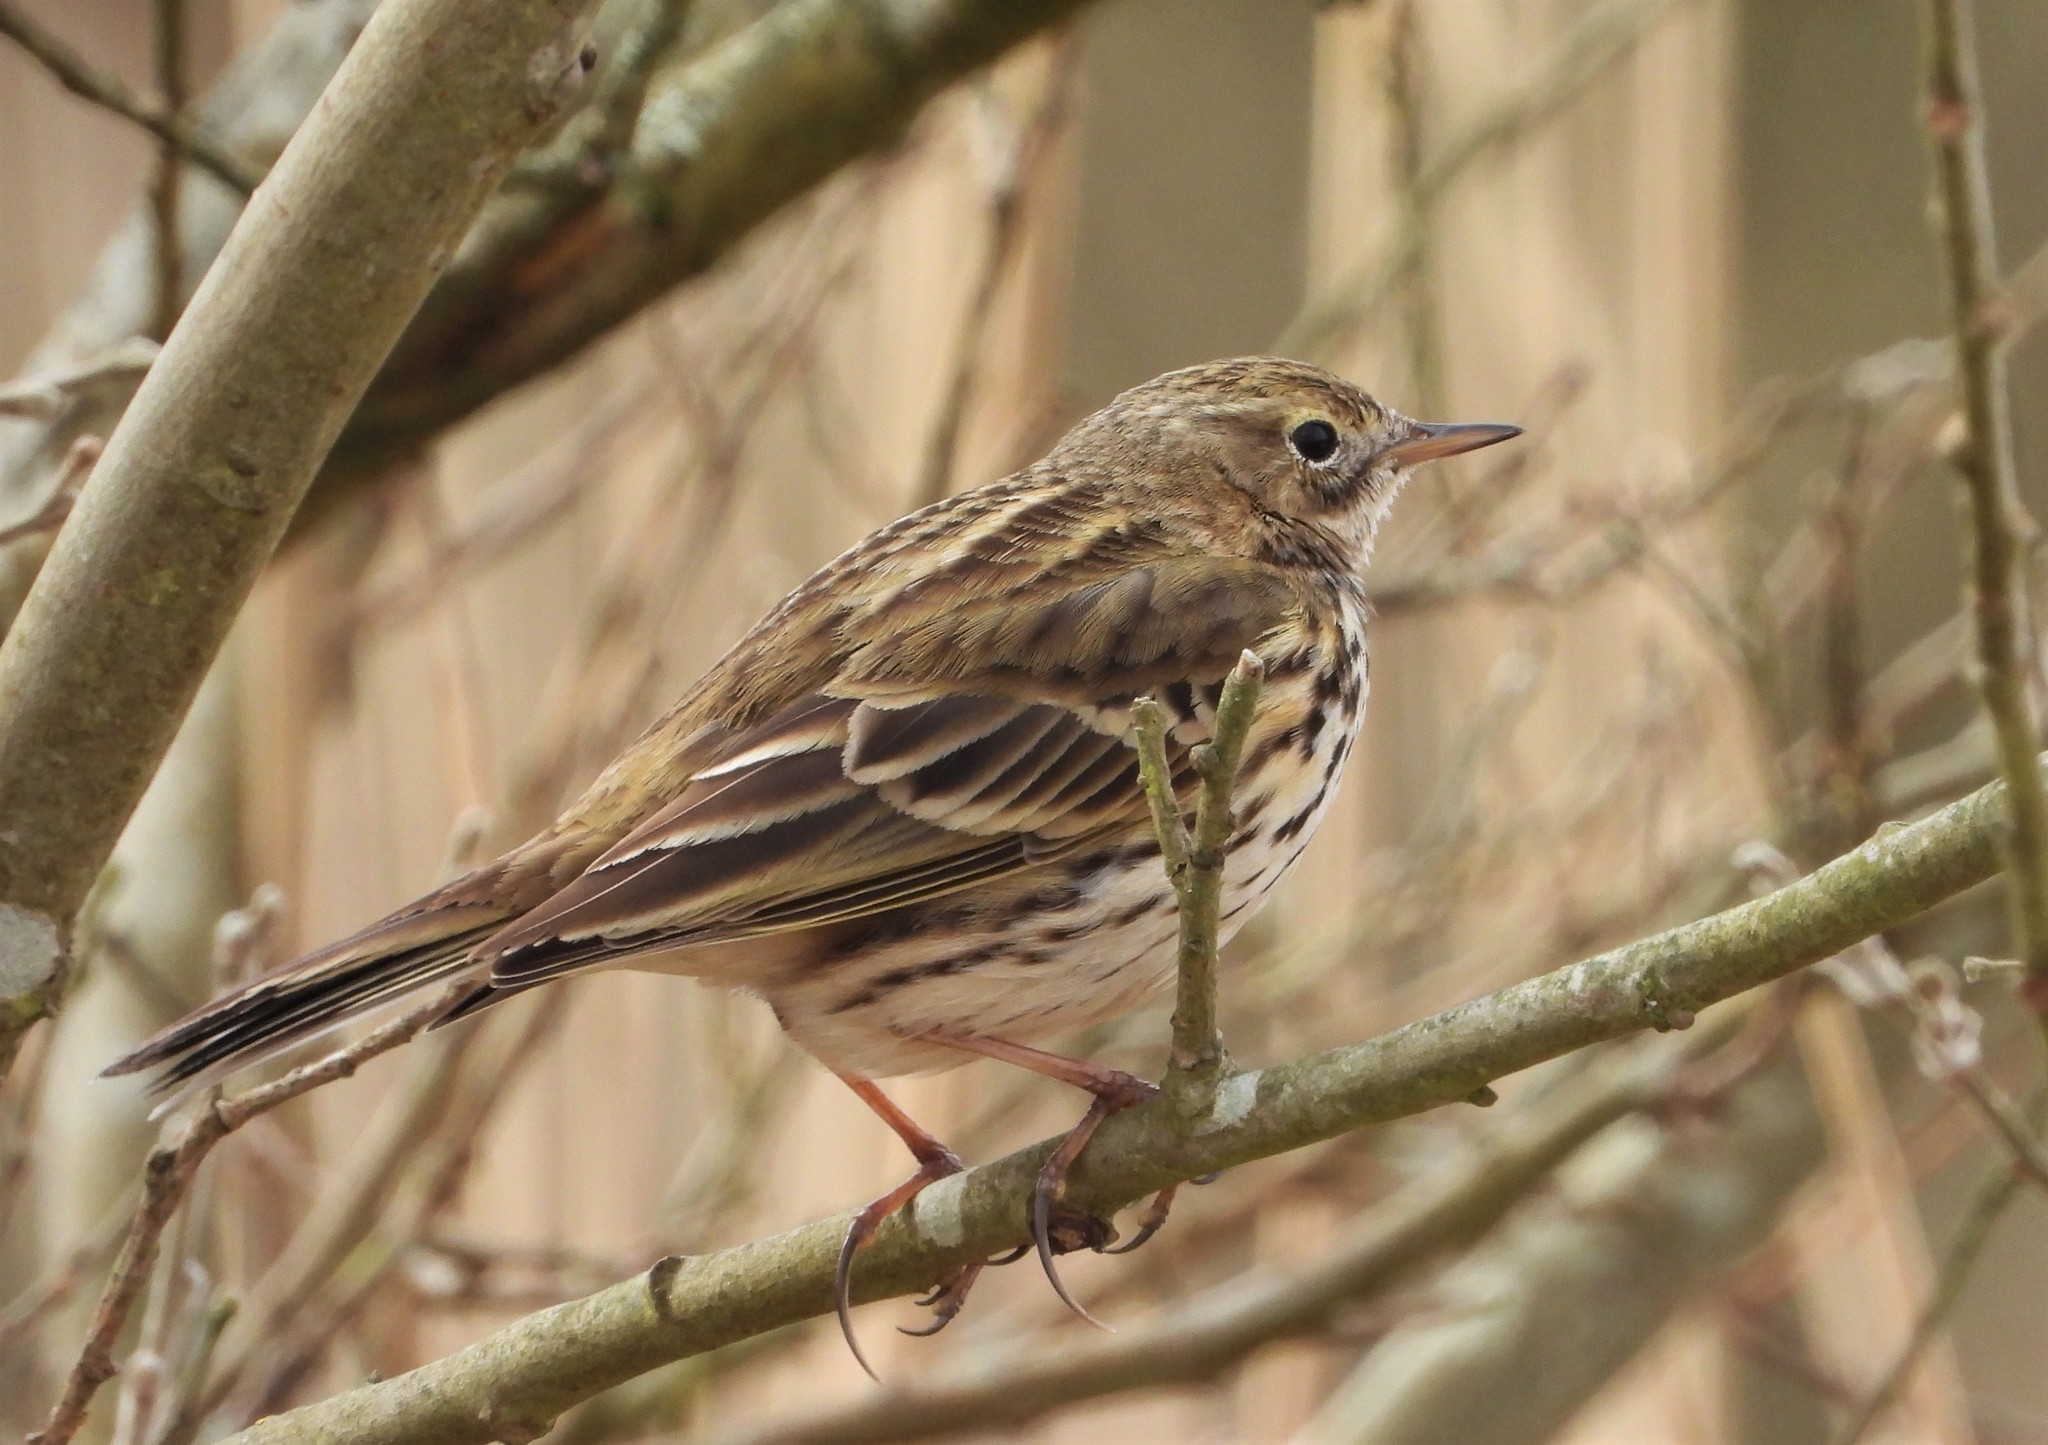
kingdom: Animalia
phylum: Chordata
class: Aves
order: Passeriformes
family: Motacillidae
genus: Anthus
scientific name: Anthus pratensis
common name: Meadow pipit
